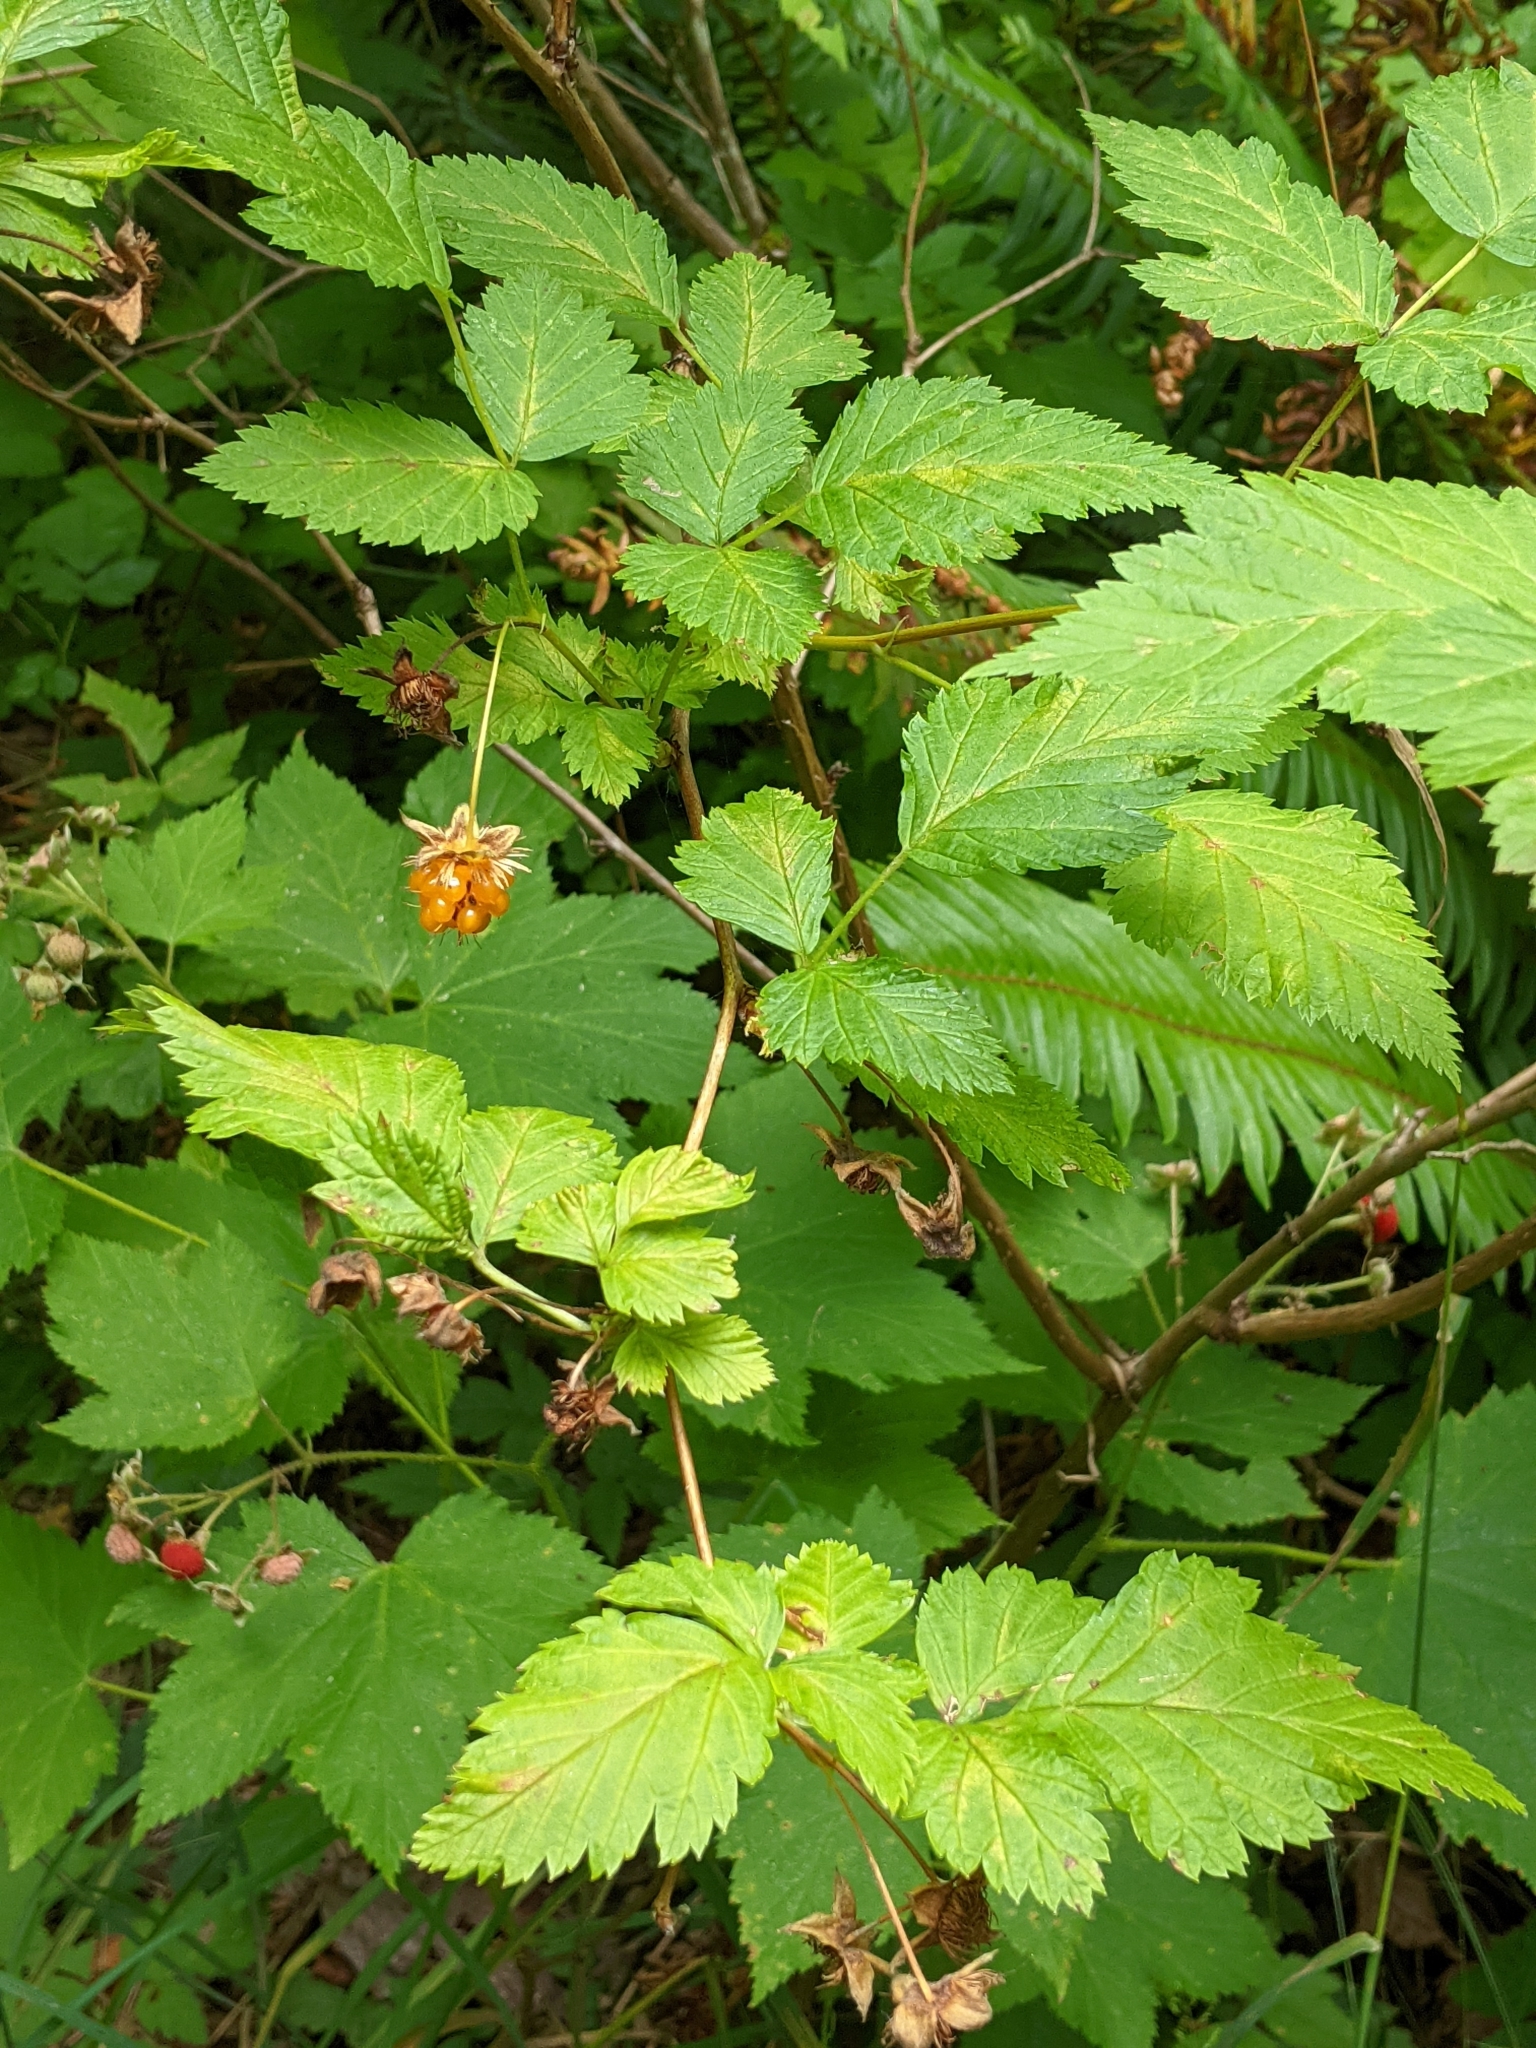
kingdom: Plantae
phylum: Tracheophyta
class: Magnoliopsida
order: Rosales
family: Rosaceae
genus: Rubus
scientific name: Rubus spectabilis
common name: Salmonberry
